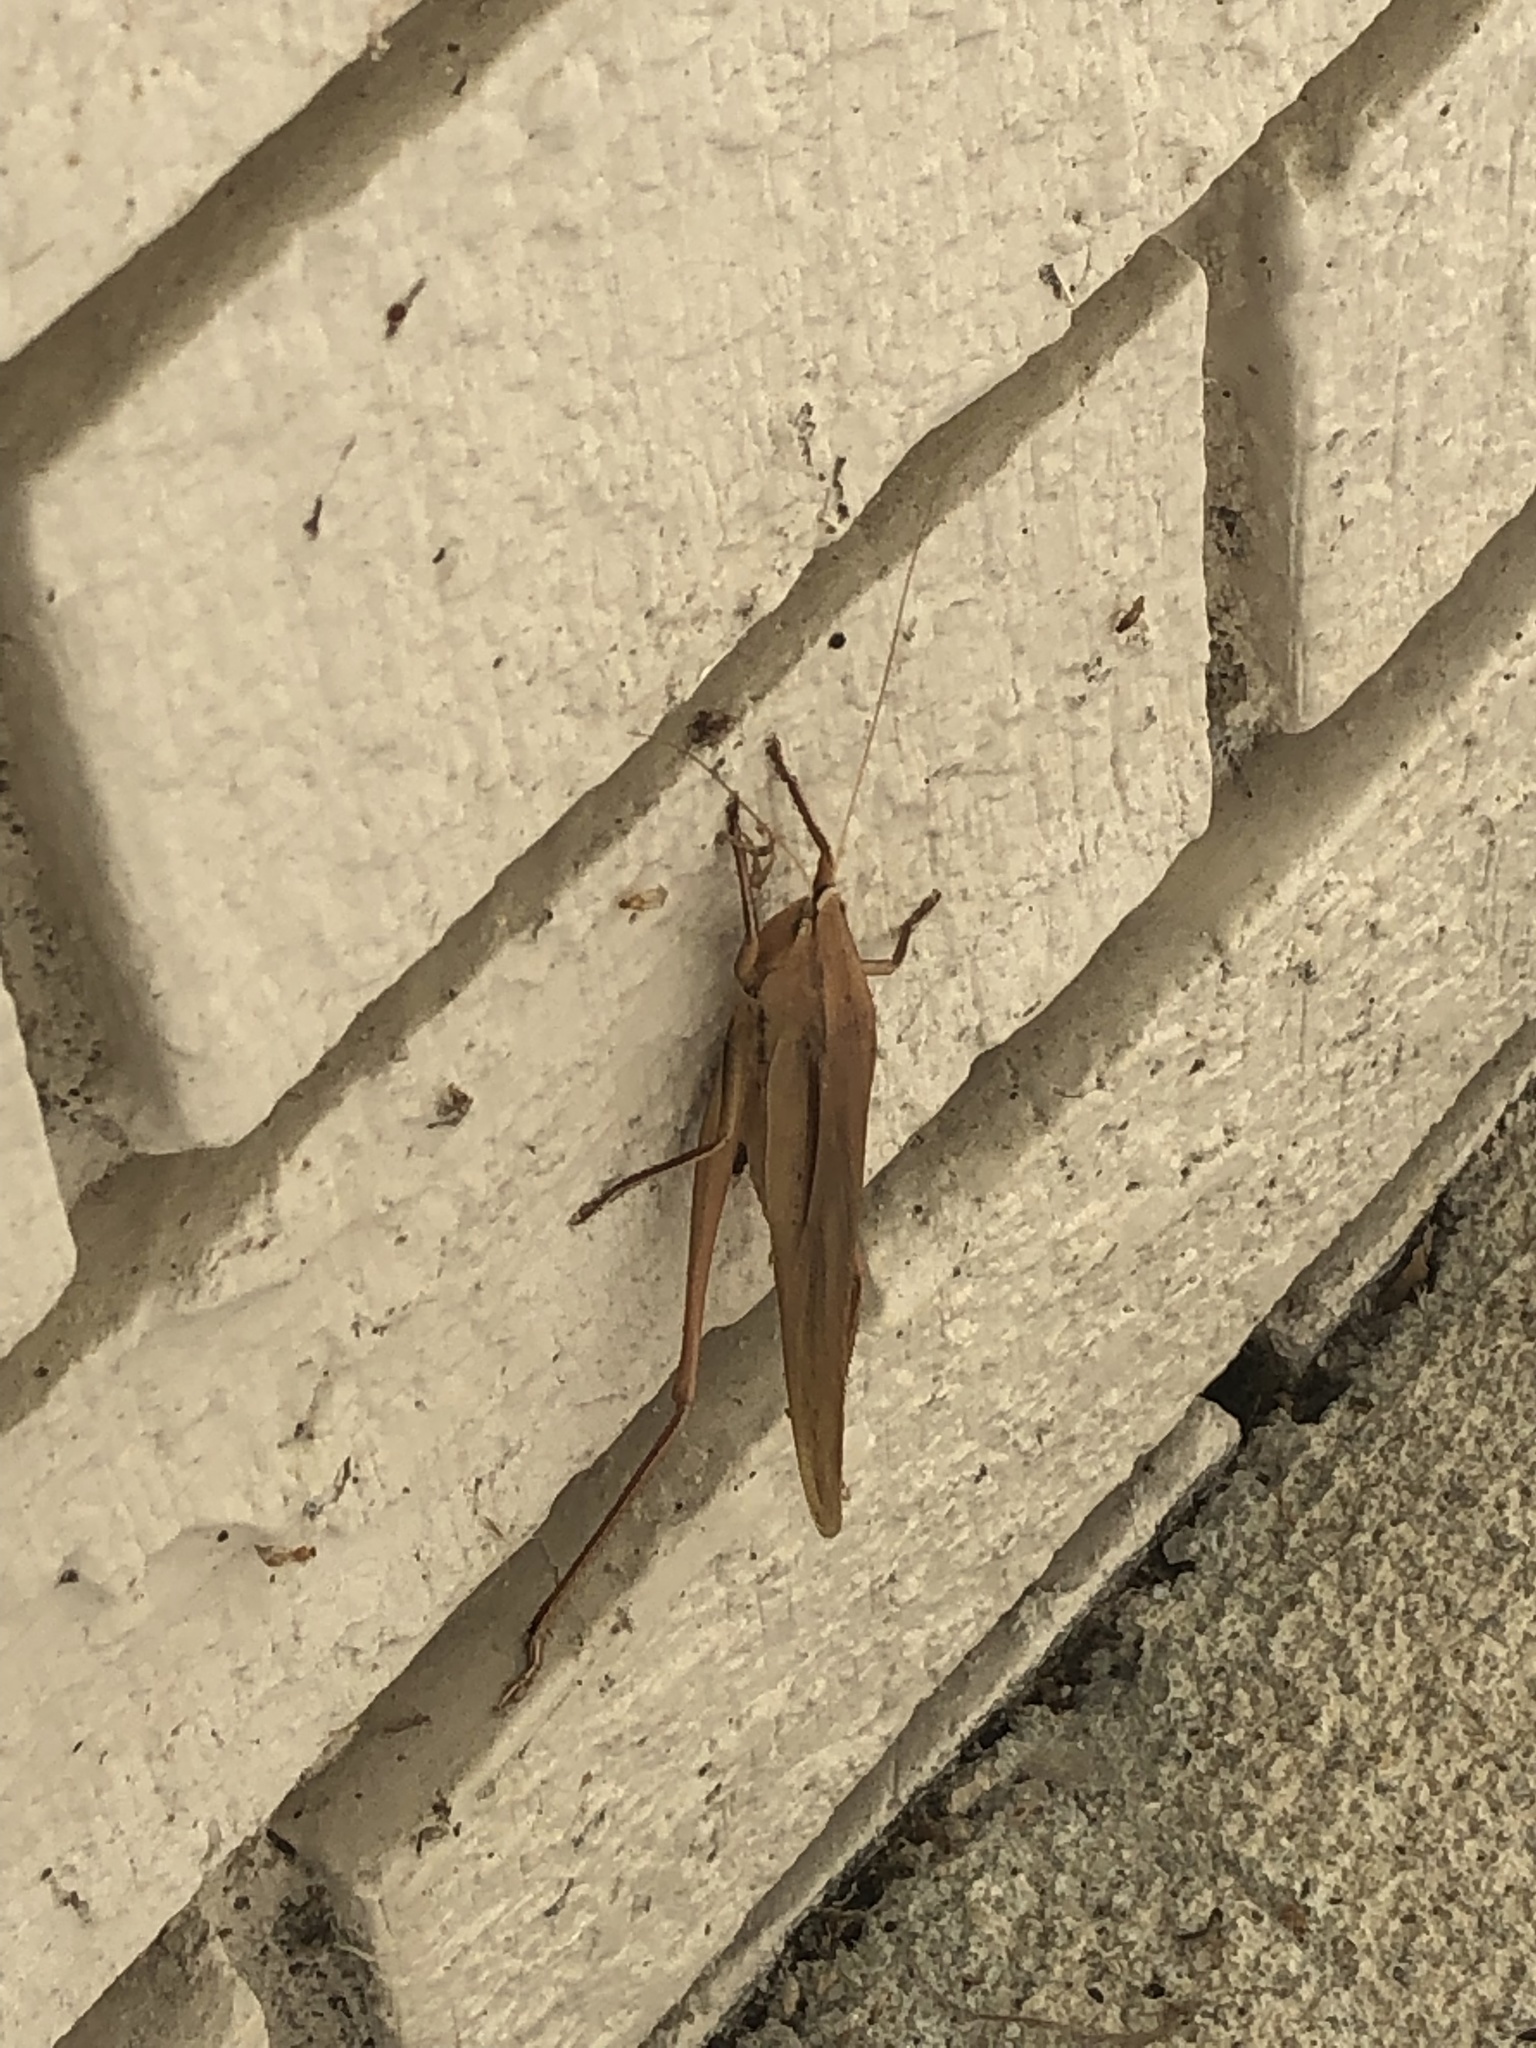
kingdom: Animalia
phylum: Arthropoda
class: Insecta
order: Orthoptera
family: Tettigoniidae
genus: Neoconocephalus
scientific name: Neoconocephalus triops
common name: Broad-tipped conehead
